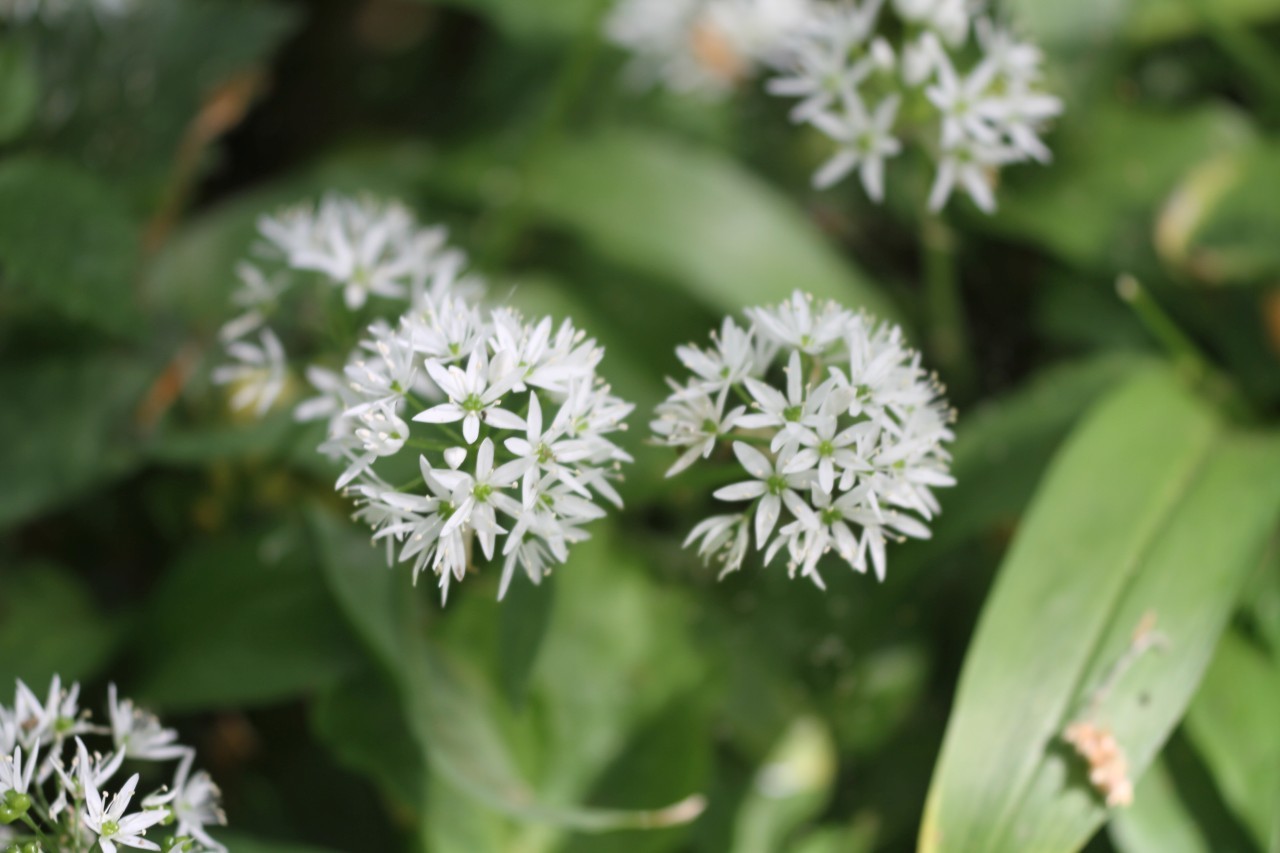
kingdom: Plantae
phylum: Tracheophyta
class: Liliopsida
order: Asparagales
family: Amaryllidaceae
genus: Allium
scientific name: Allium ursinum
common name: Ramsons
